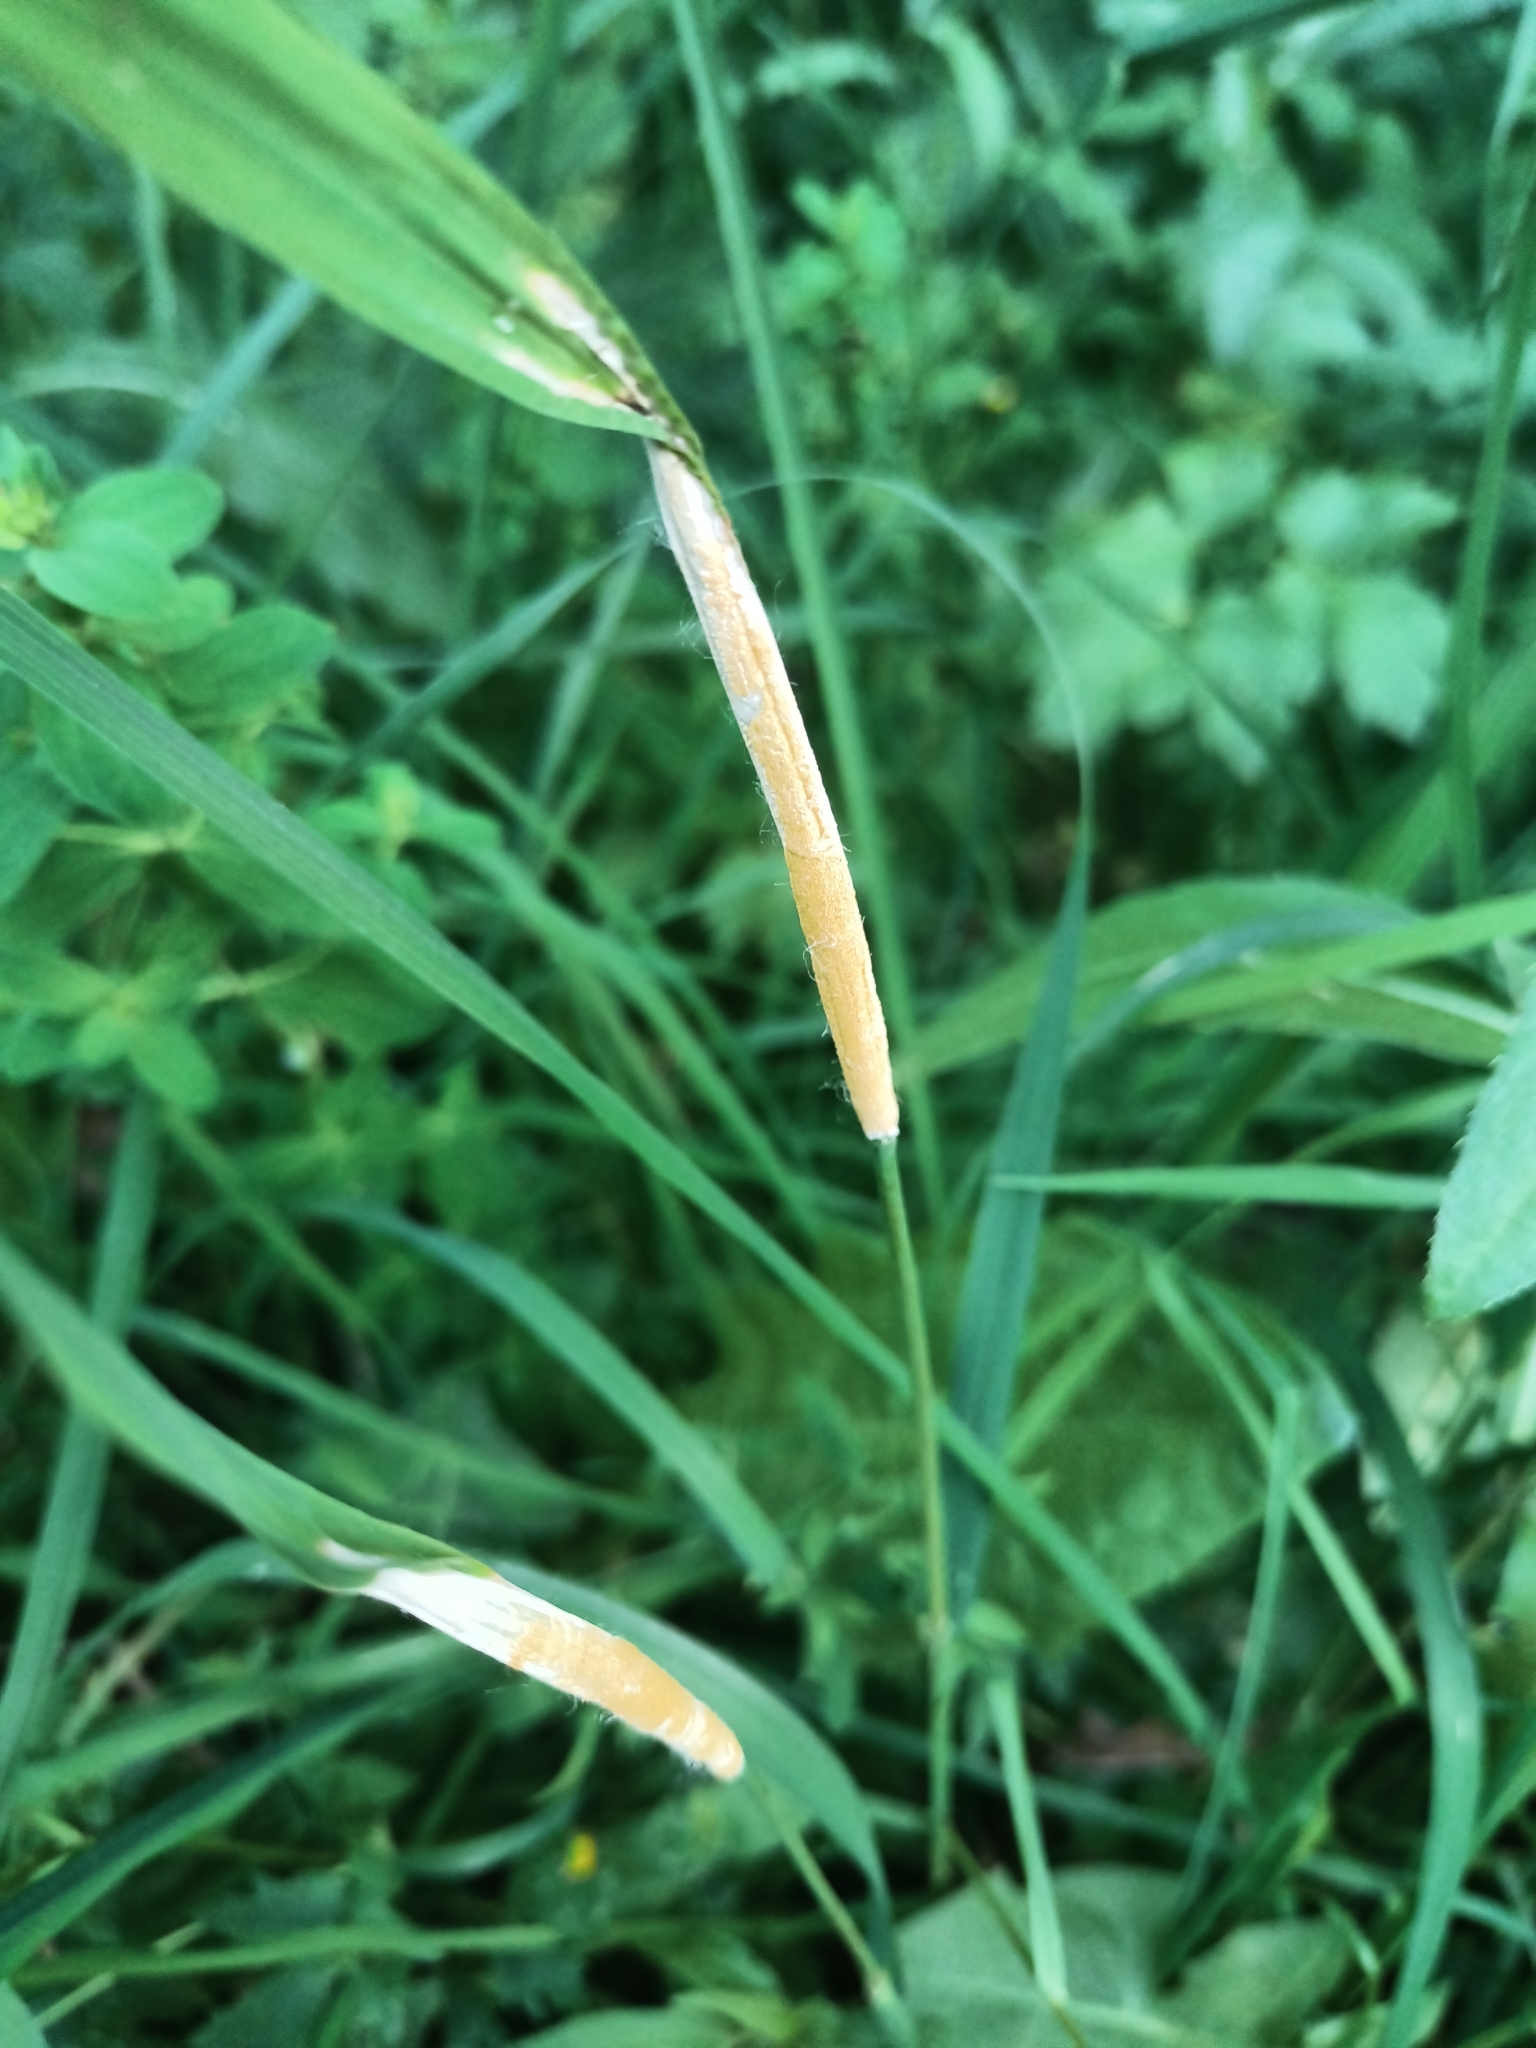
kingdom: Fungi
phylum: Ascomycota
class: Sordariomycetes
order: Hypocreales
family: Clavicipitaceae
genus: Epichloe
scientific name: Epichloe typhina
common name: Choke
